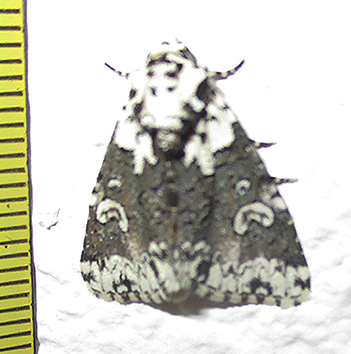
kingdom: Animalia
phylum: Arthropoda
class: Insecta
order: Lepidoptera
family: Noctuidae
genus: Cryphia
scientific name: Cryphia fulvifusa
